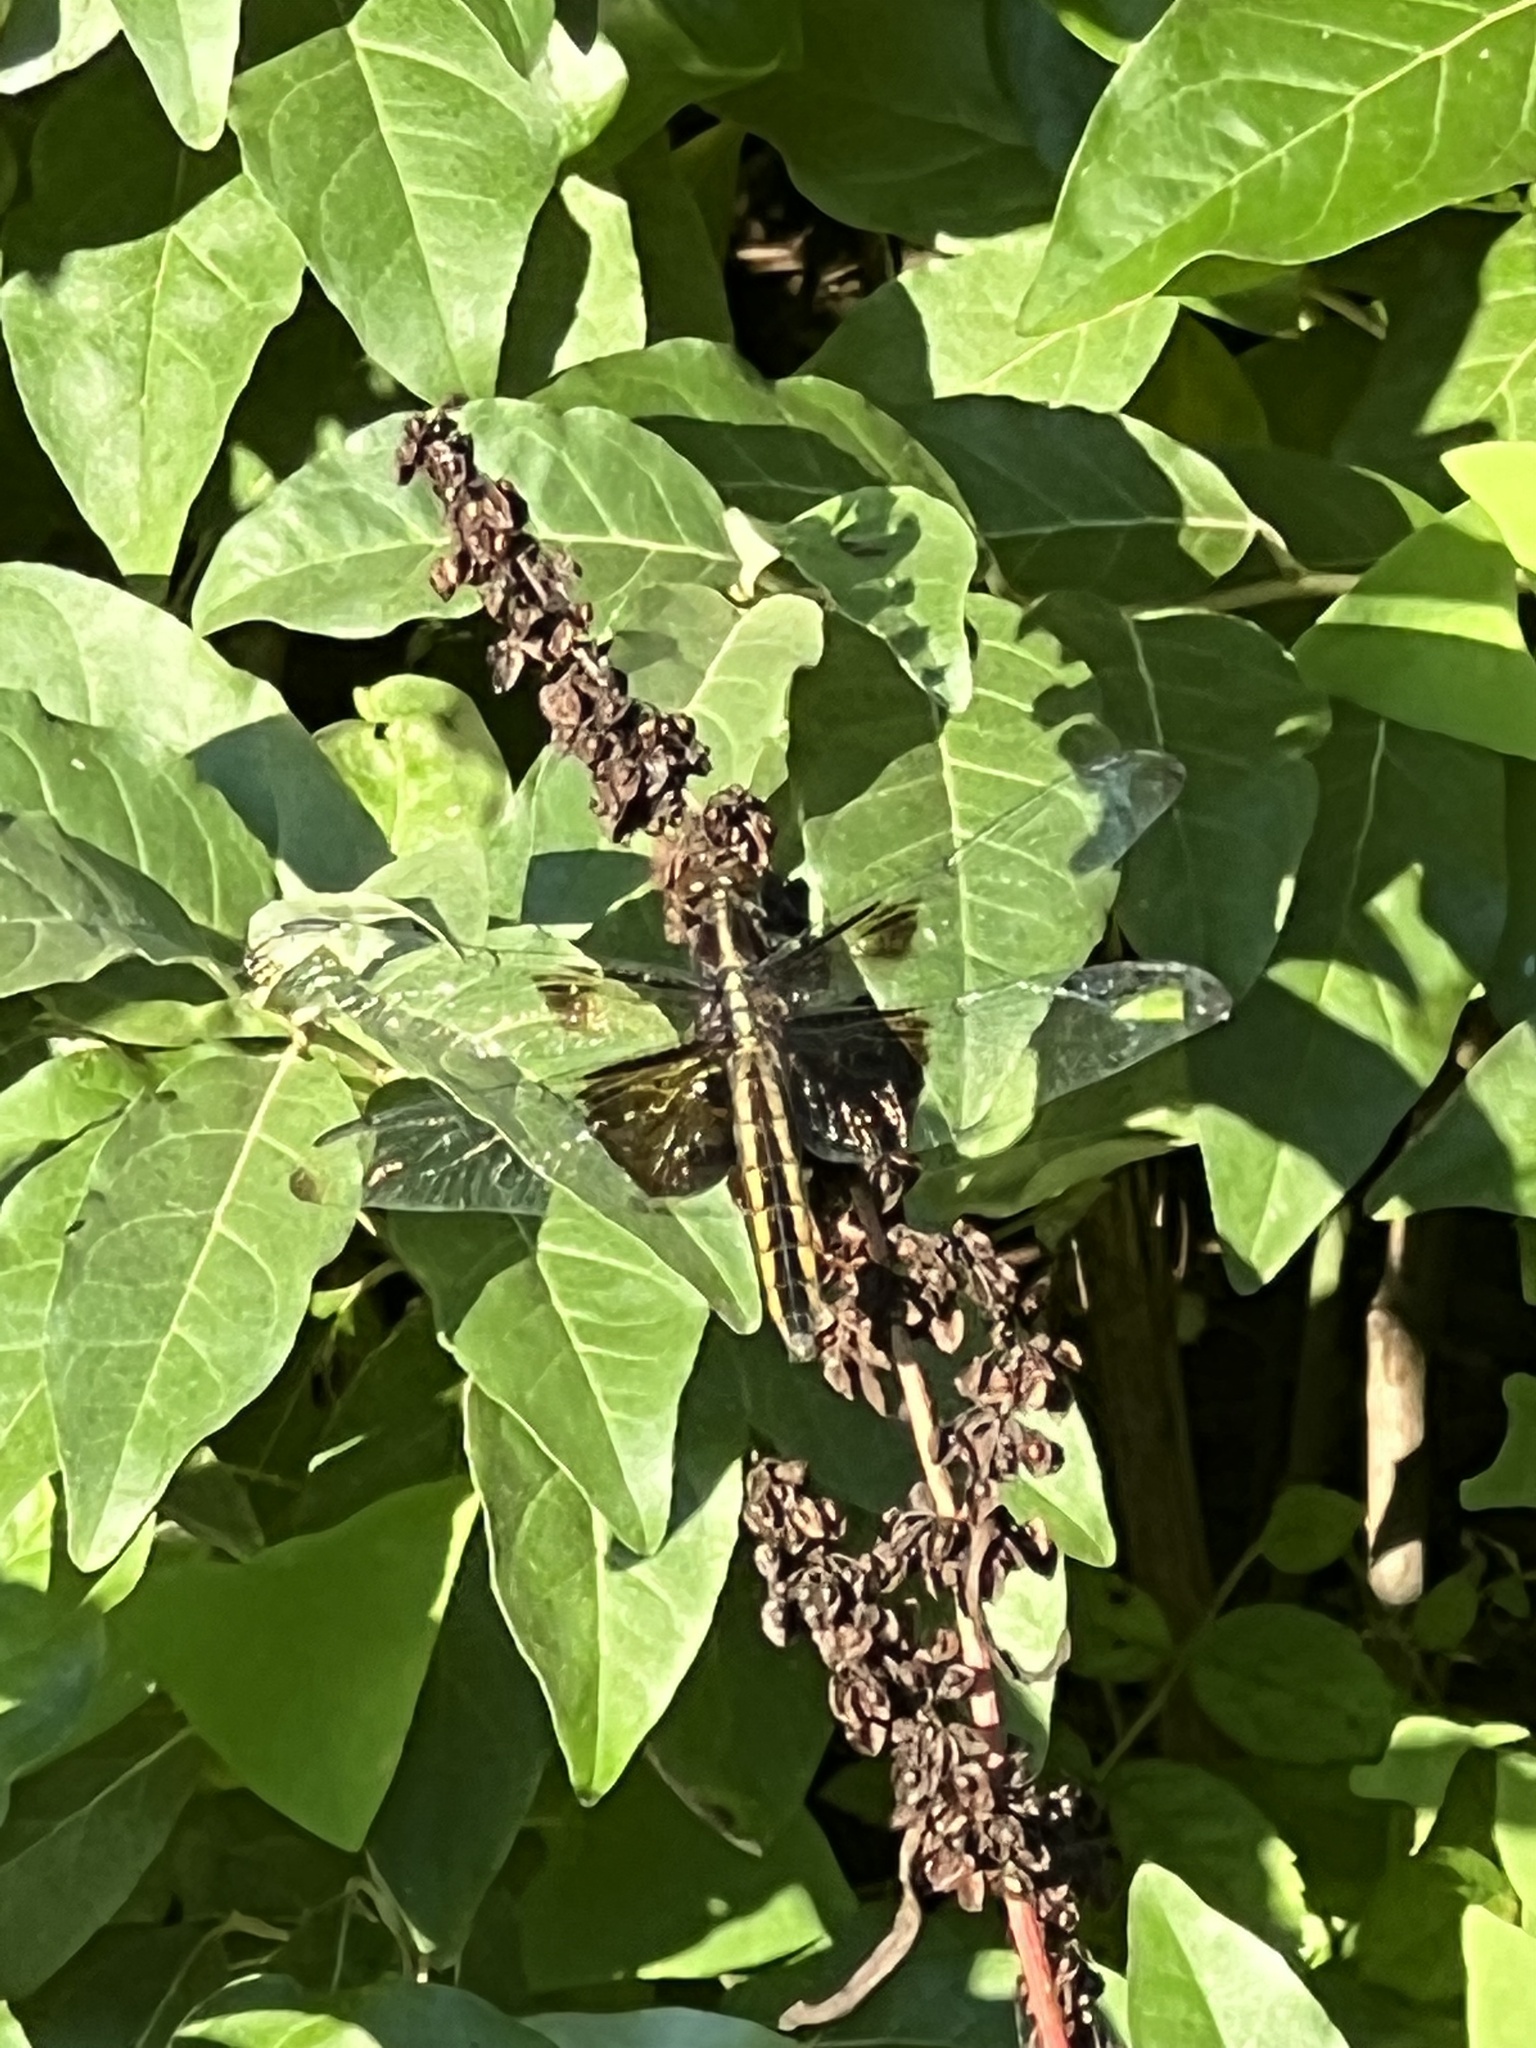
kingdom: Animalia
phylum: Arthropoda
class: Insecta
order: Odonata
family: Libellulidae
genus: Libellula
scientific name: Libellula luctuosa
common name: Widow skimmer
